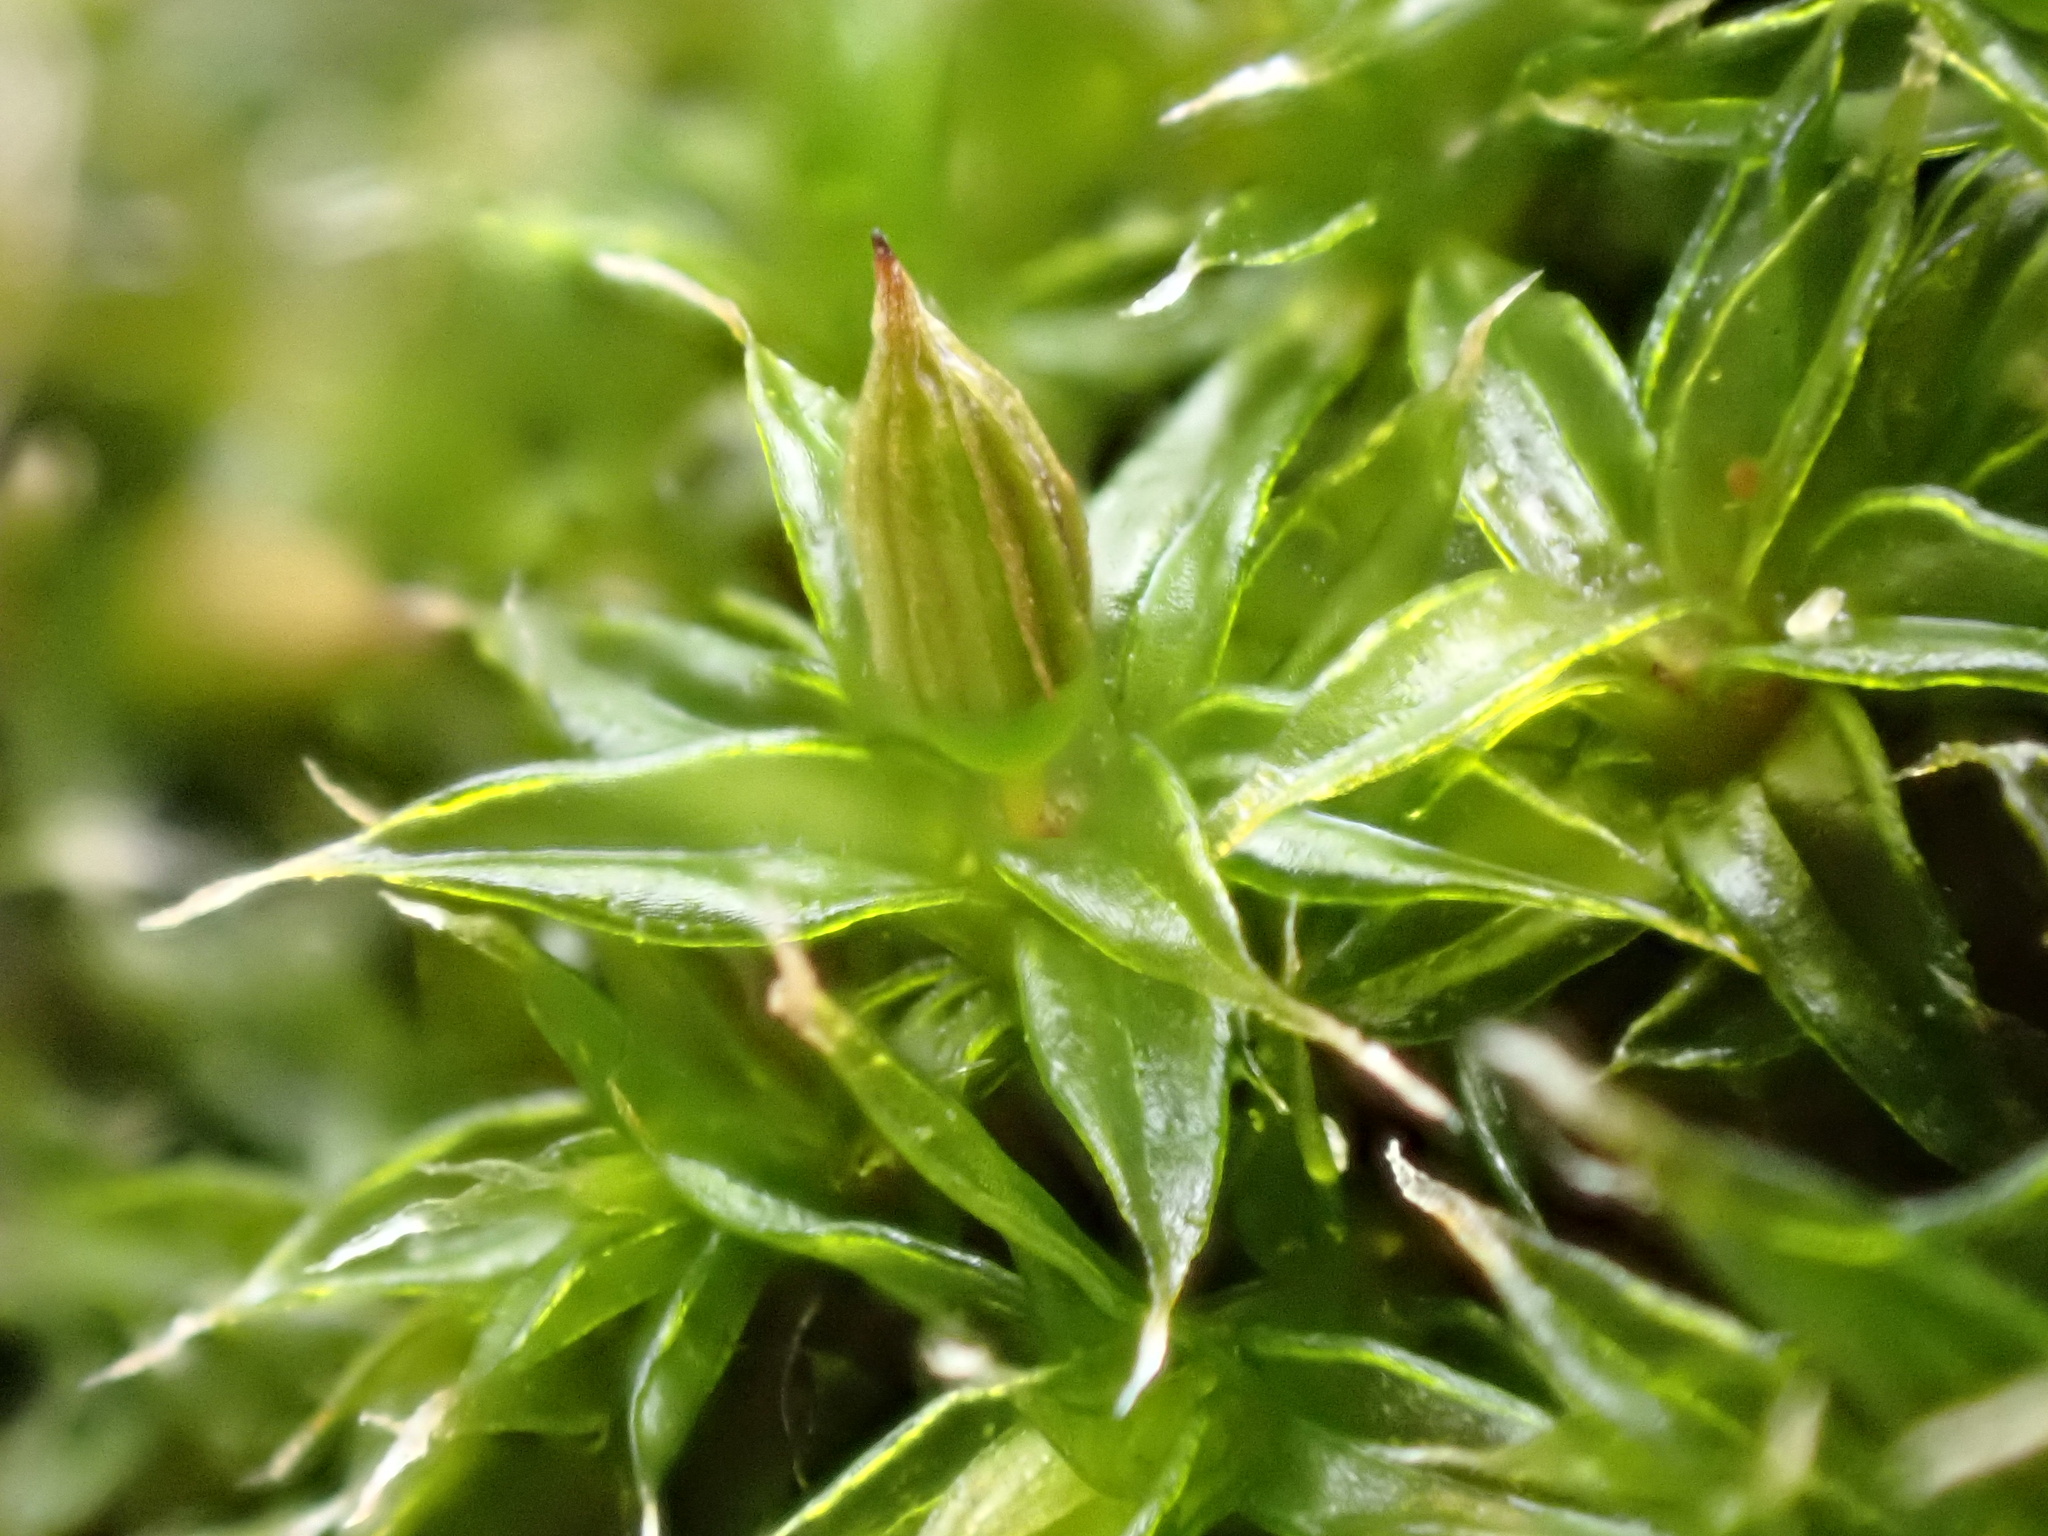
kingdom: Plantae
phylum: Bryophyta
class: Bryopsida
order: Orthotrichales
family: Orthotrichaceae
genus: Orthotrichum
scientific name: Orthotrichum diaphanum
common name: White-tipped bristle-moss
